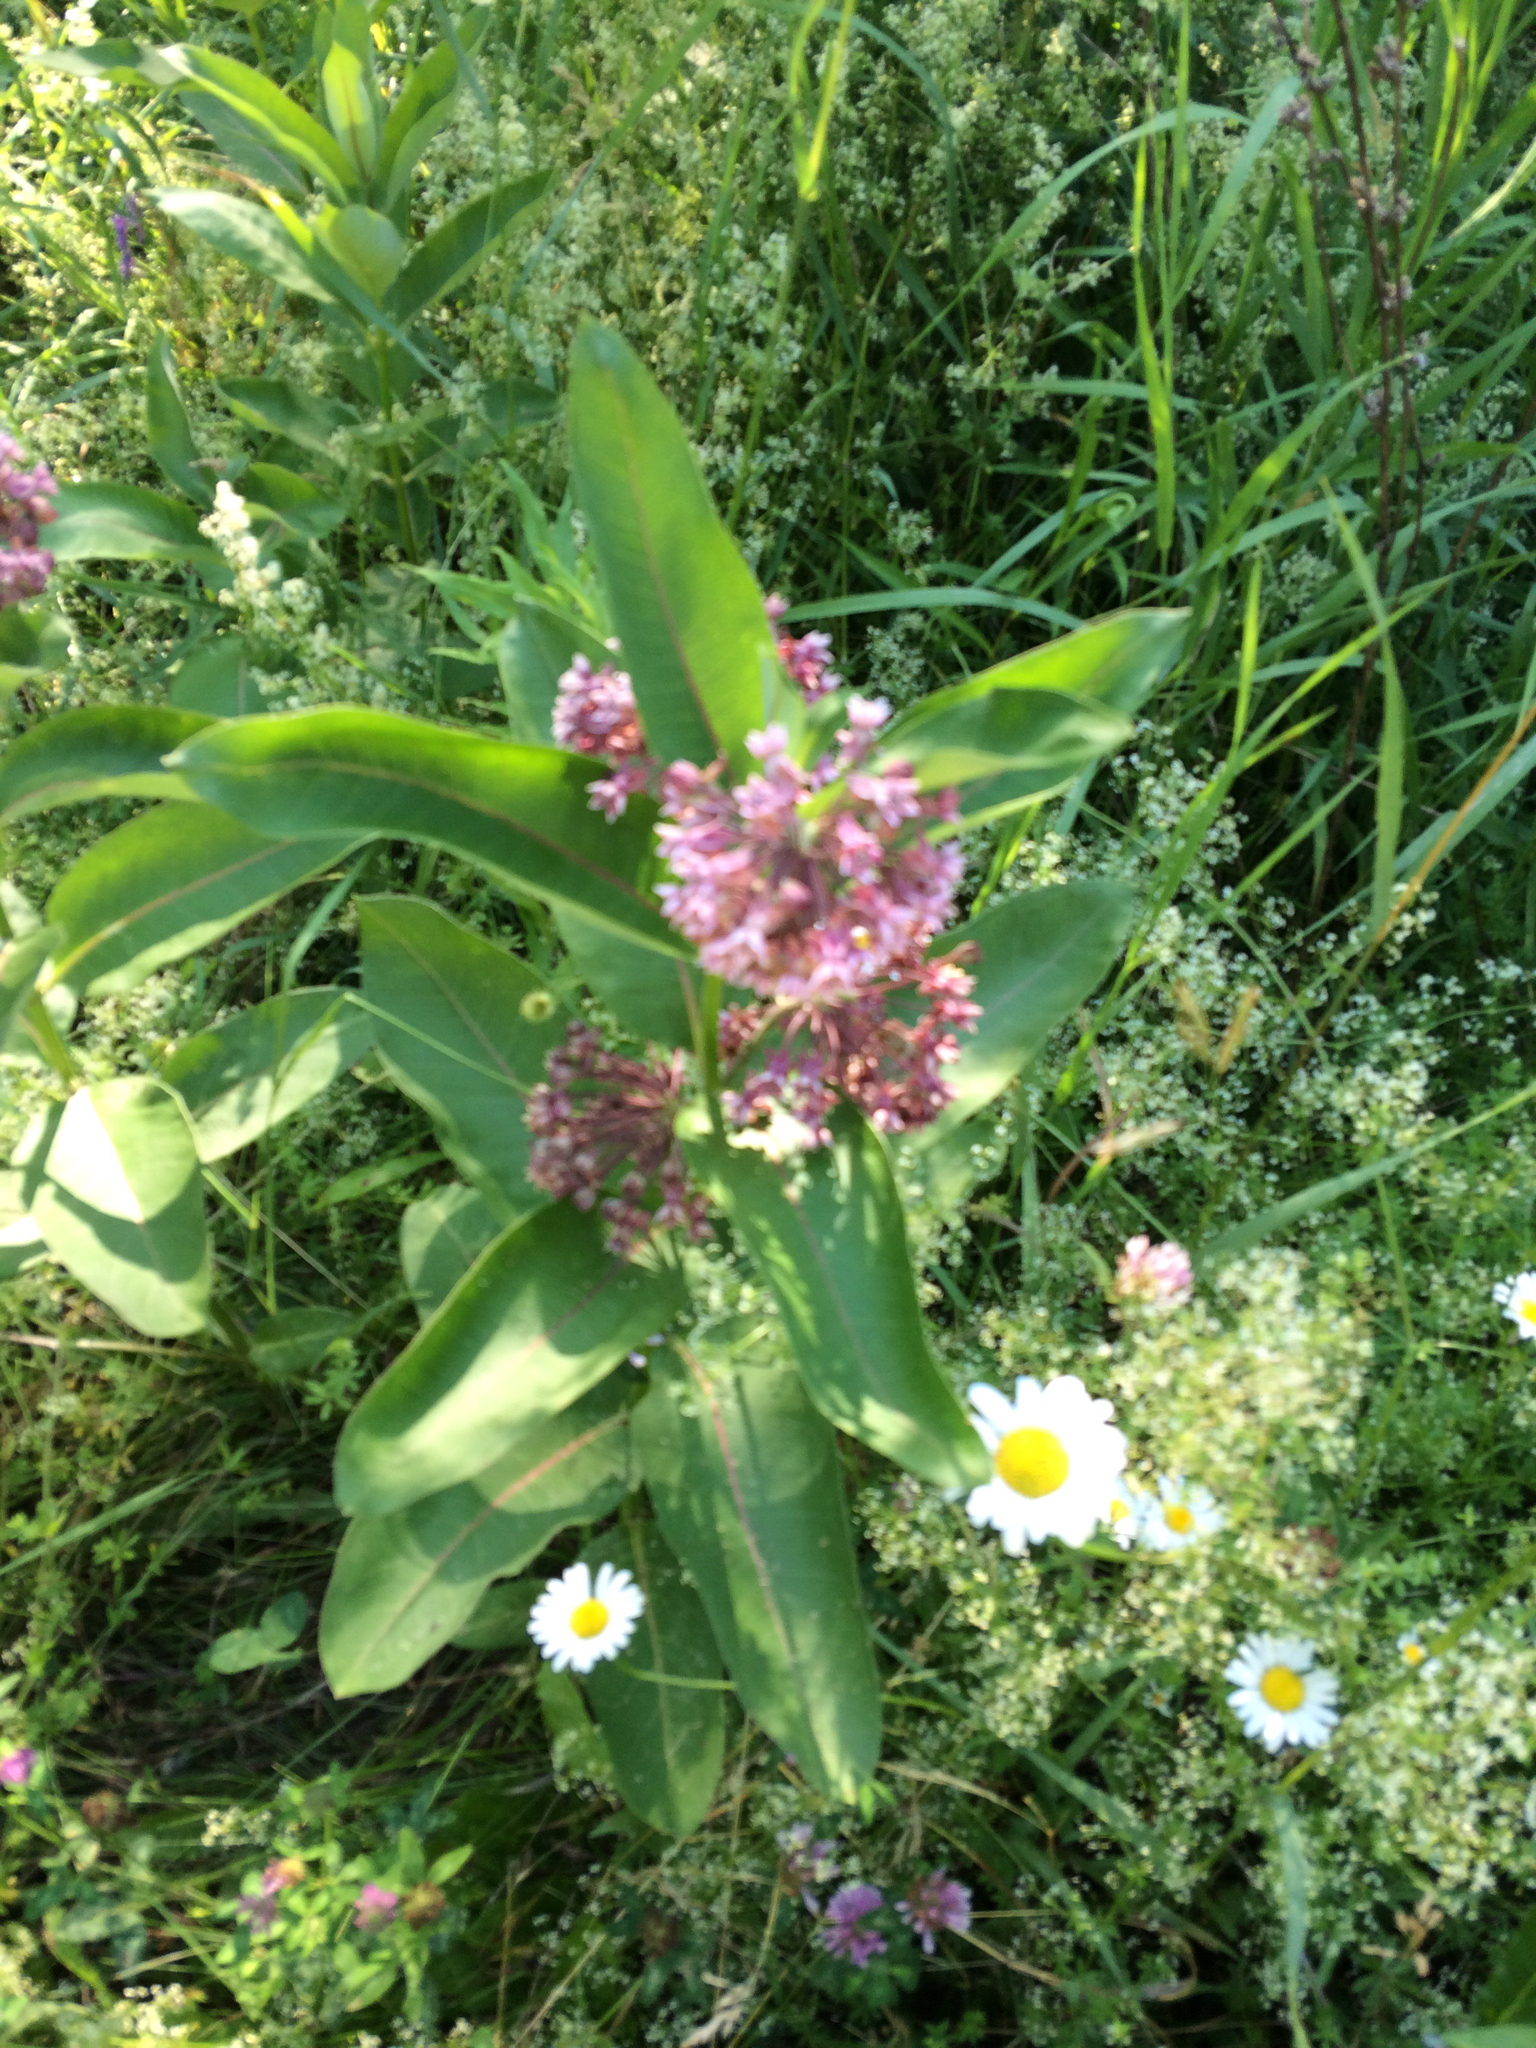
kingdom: Plantae
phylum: Tracheophyta
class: Magnoliopsida
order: Gentianales
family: Apocynaceae
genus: Asclepias
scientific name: Asclepias syriaca
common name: Common milkweed
